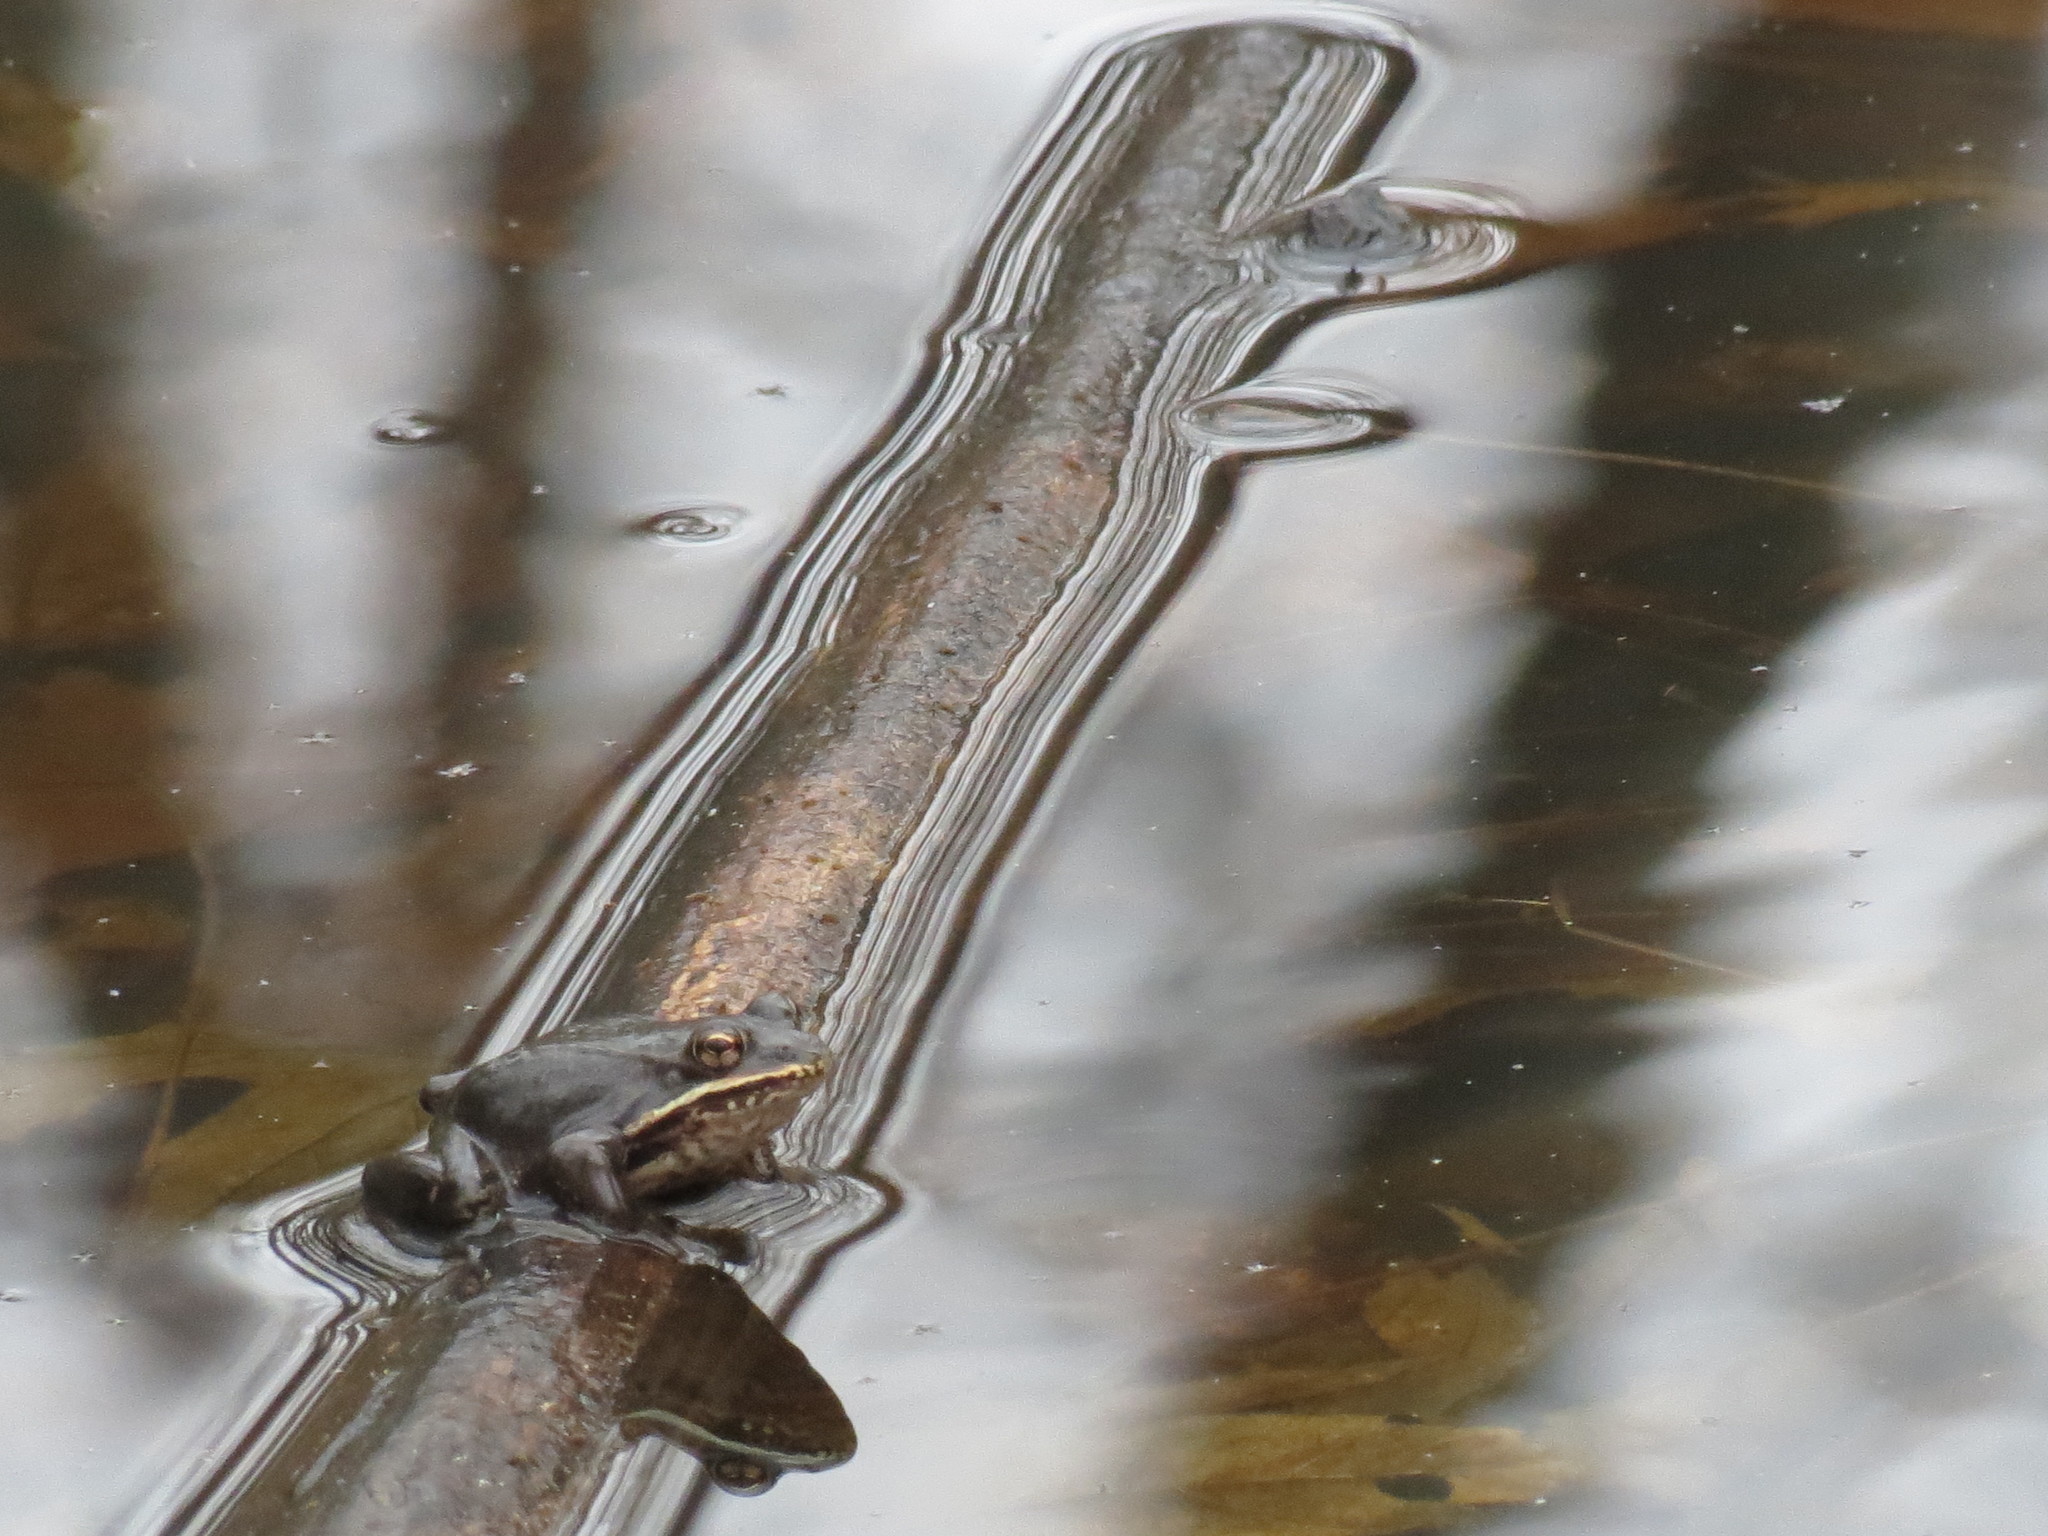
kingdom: Animalia
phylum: Chordata
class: Amphibia
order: Anura
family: Ranidae
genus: Lithobates
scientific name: Lithobates sylvaticus
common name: Wood frog
